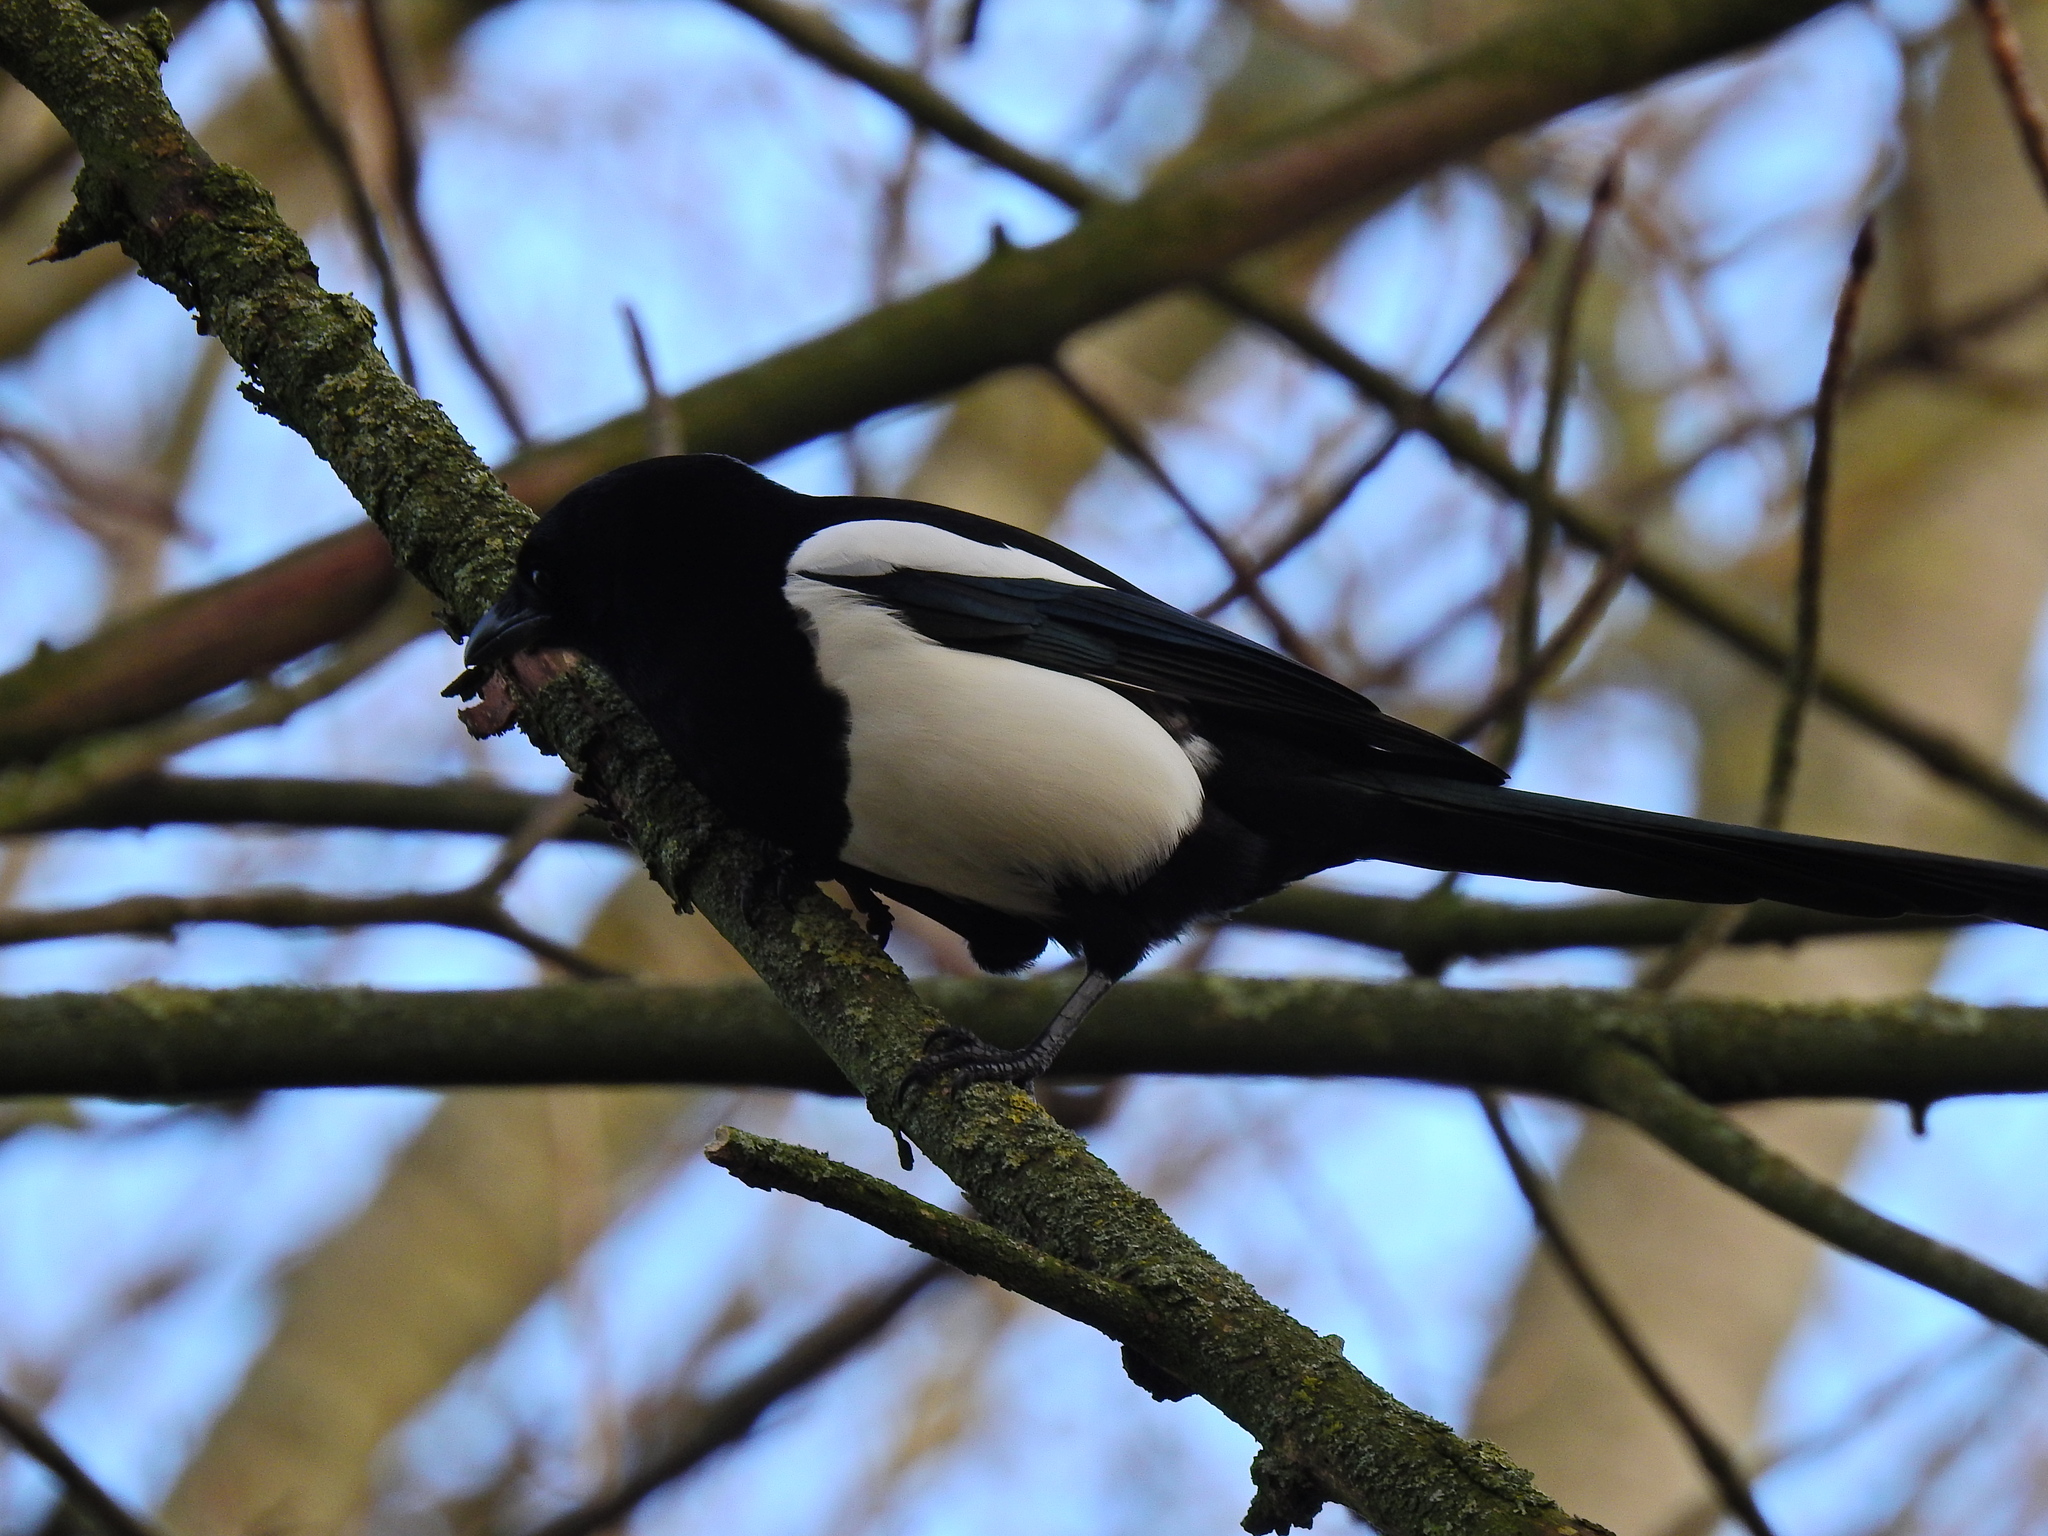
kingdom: Animalia
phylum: Chordata
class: Aves
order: Passeriformes
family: Corvidae
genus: Pica
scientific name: Pica pica
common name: Eurasian magpie
